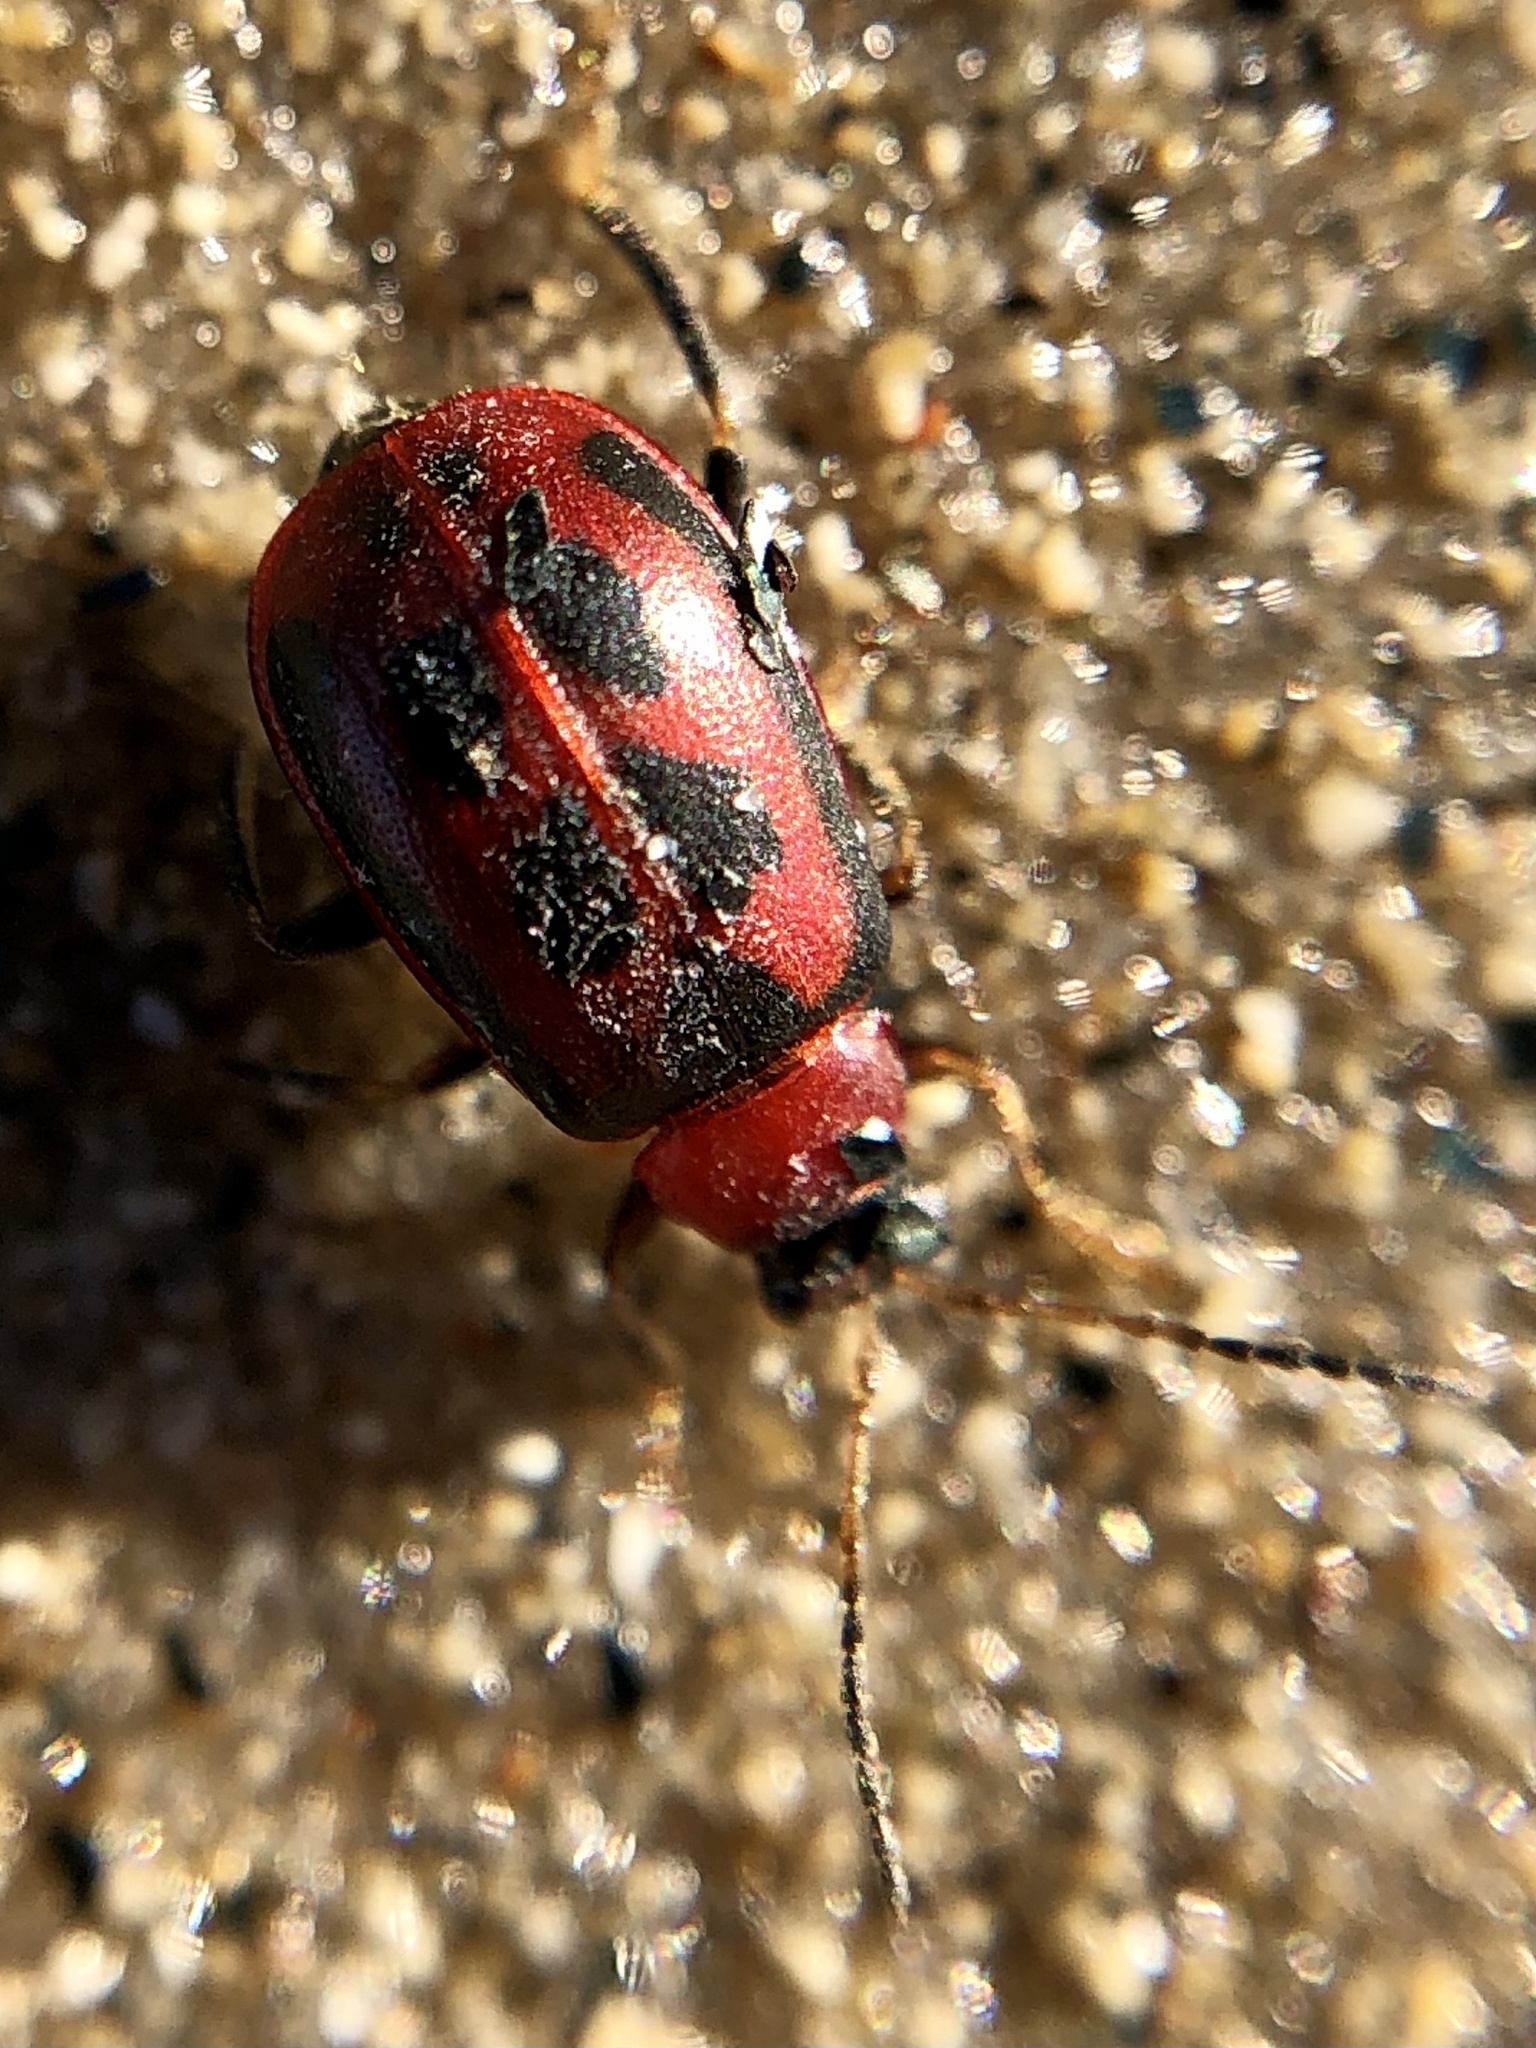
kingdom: Animalia
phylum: Arthropoda
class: Insecta
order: Coleoptera
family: Chrysomelidae
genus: Cerotoma
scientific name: Cerotoma trifurcata
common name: Bean leaf beetle
